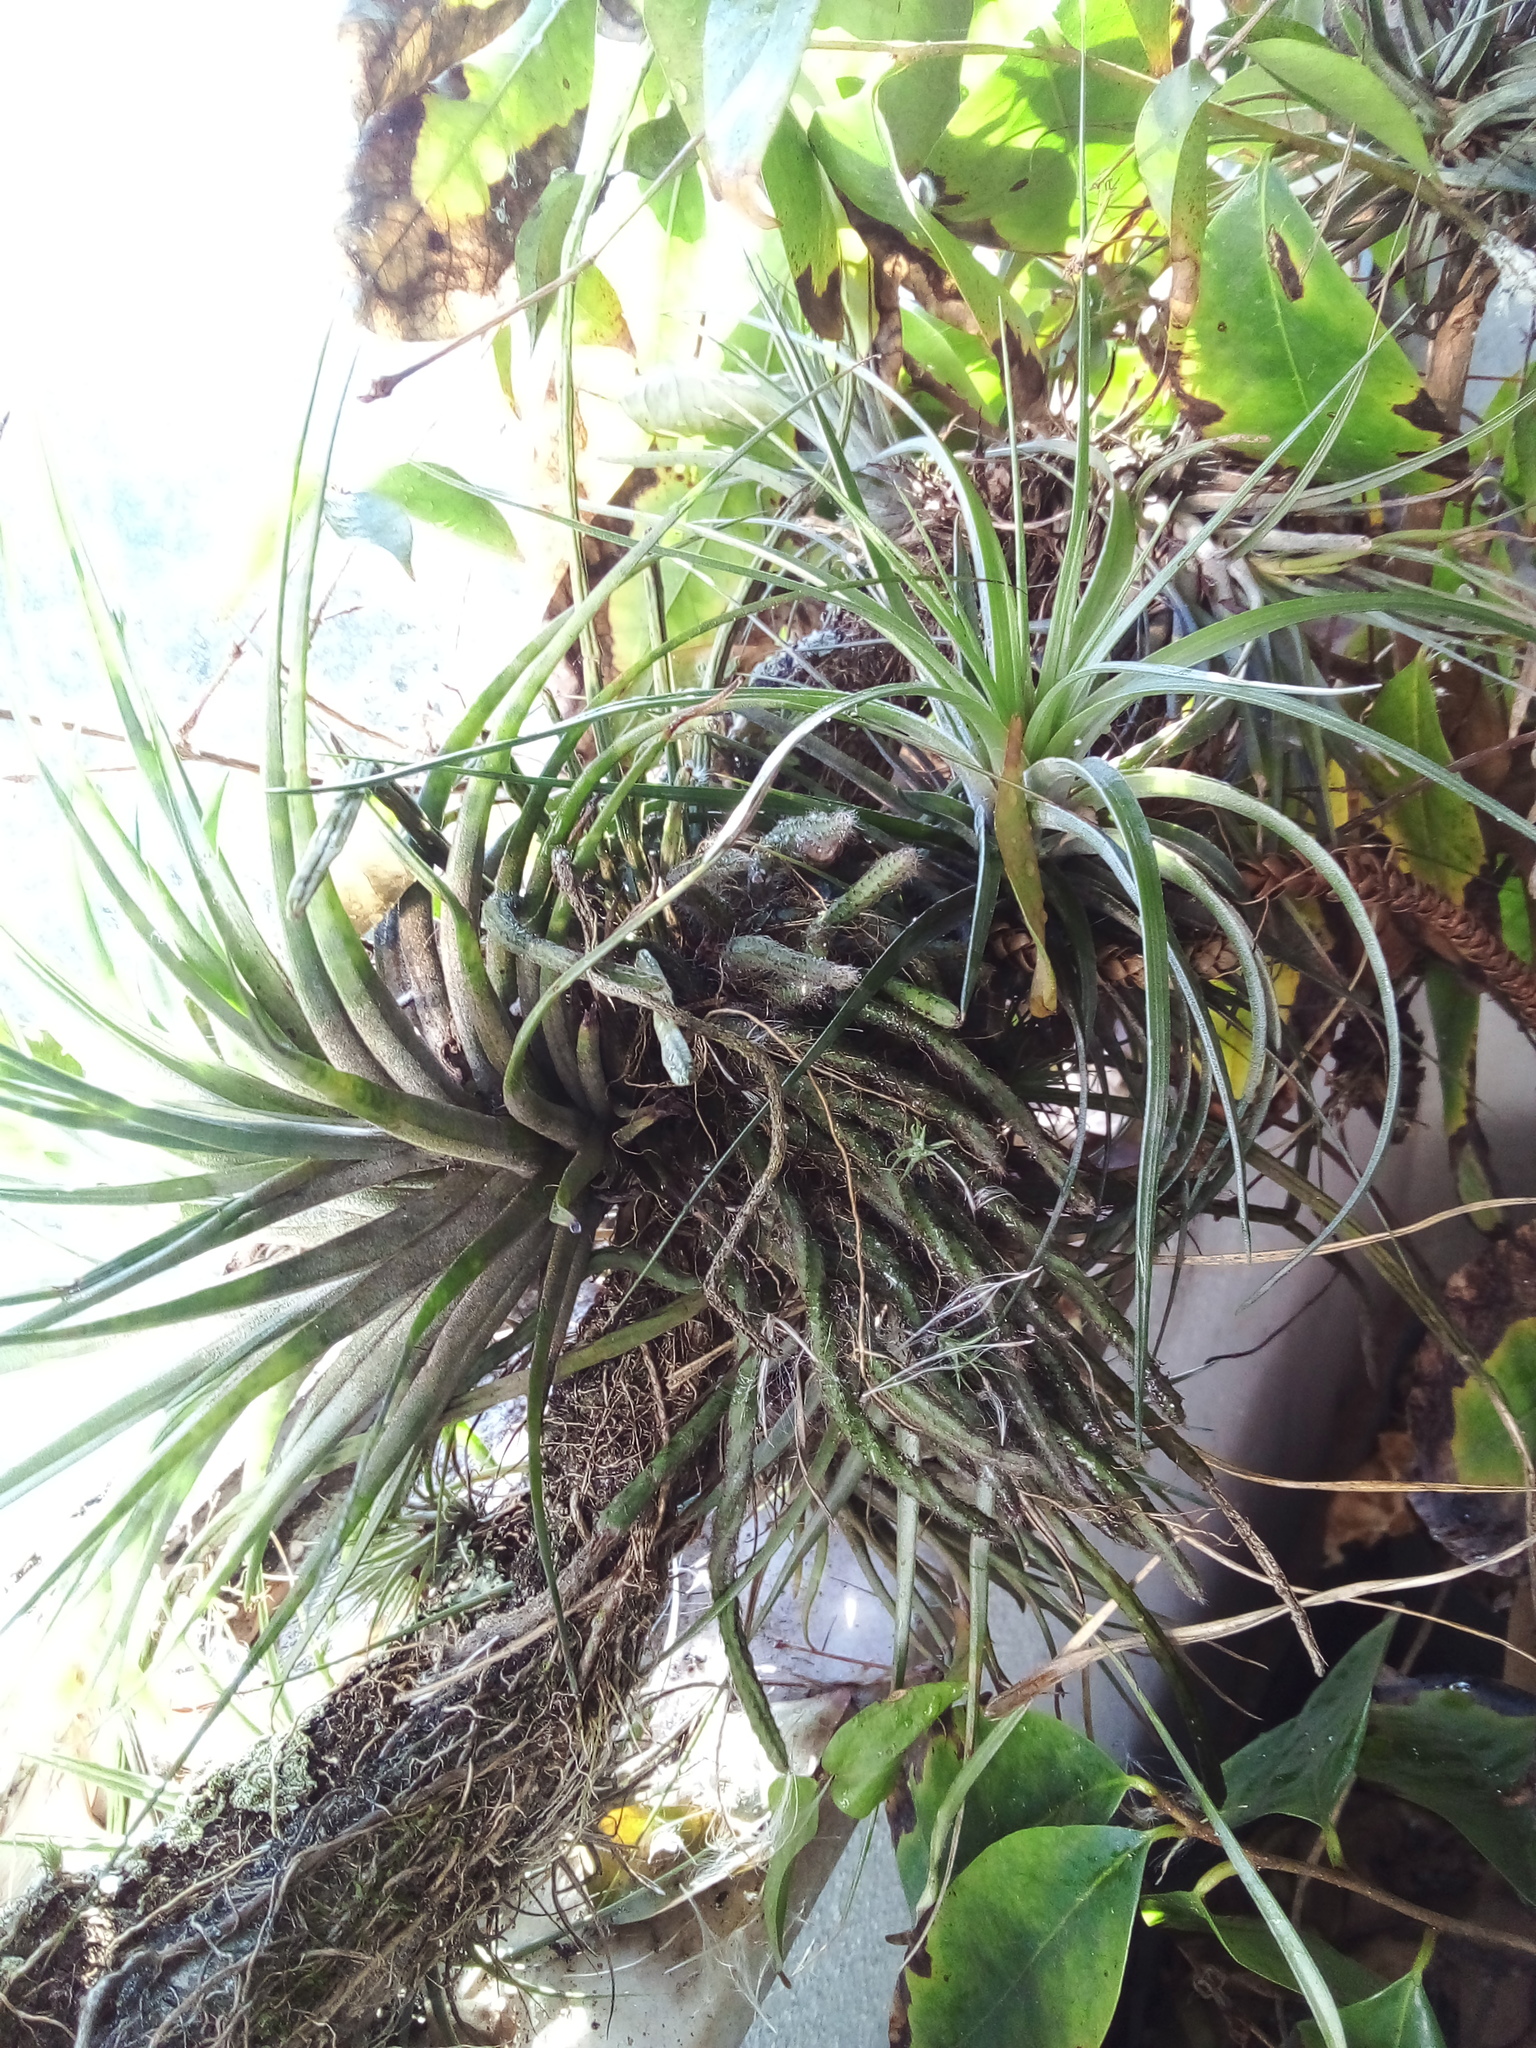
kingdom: Plantae
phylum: Tracheophyta
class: Liliopsida
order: Poales
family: Bromeliaceae
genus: Tillandsia
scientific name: Tillandsia stricta
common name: Airplant
